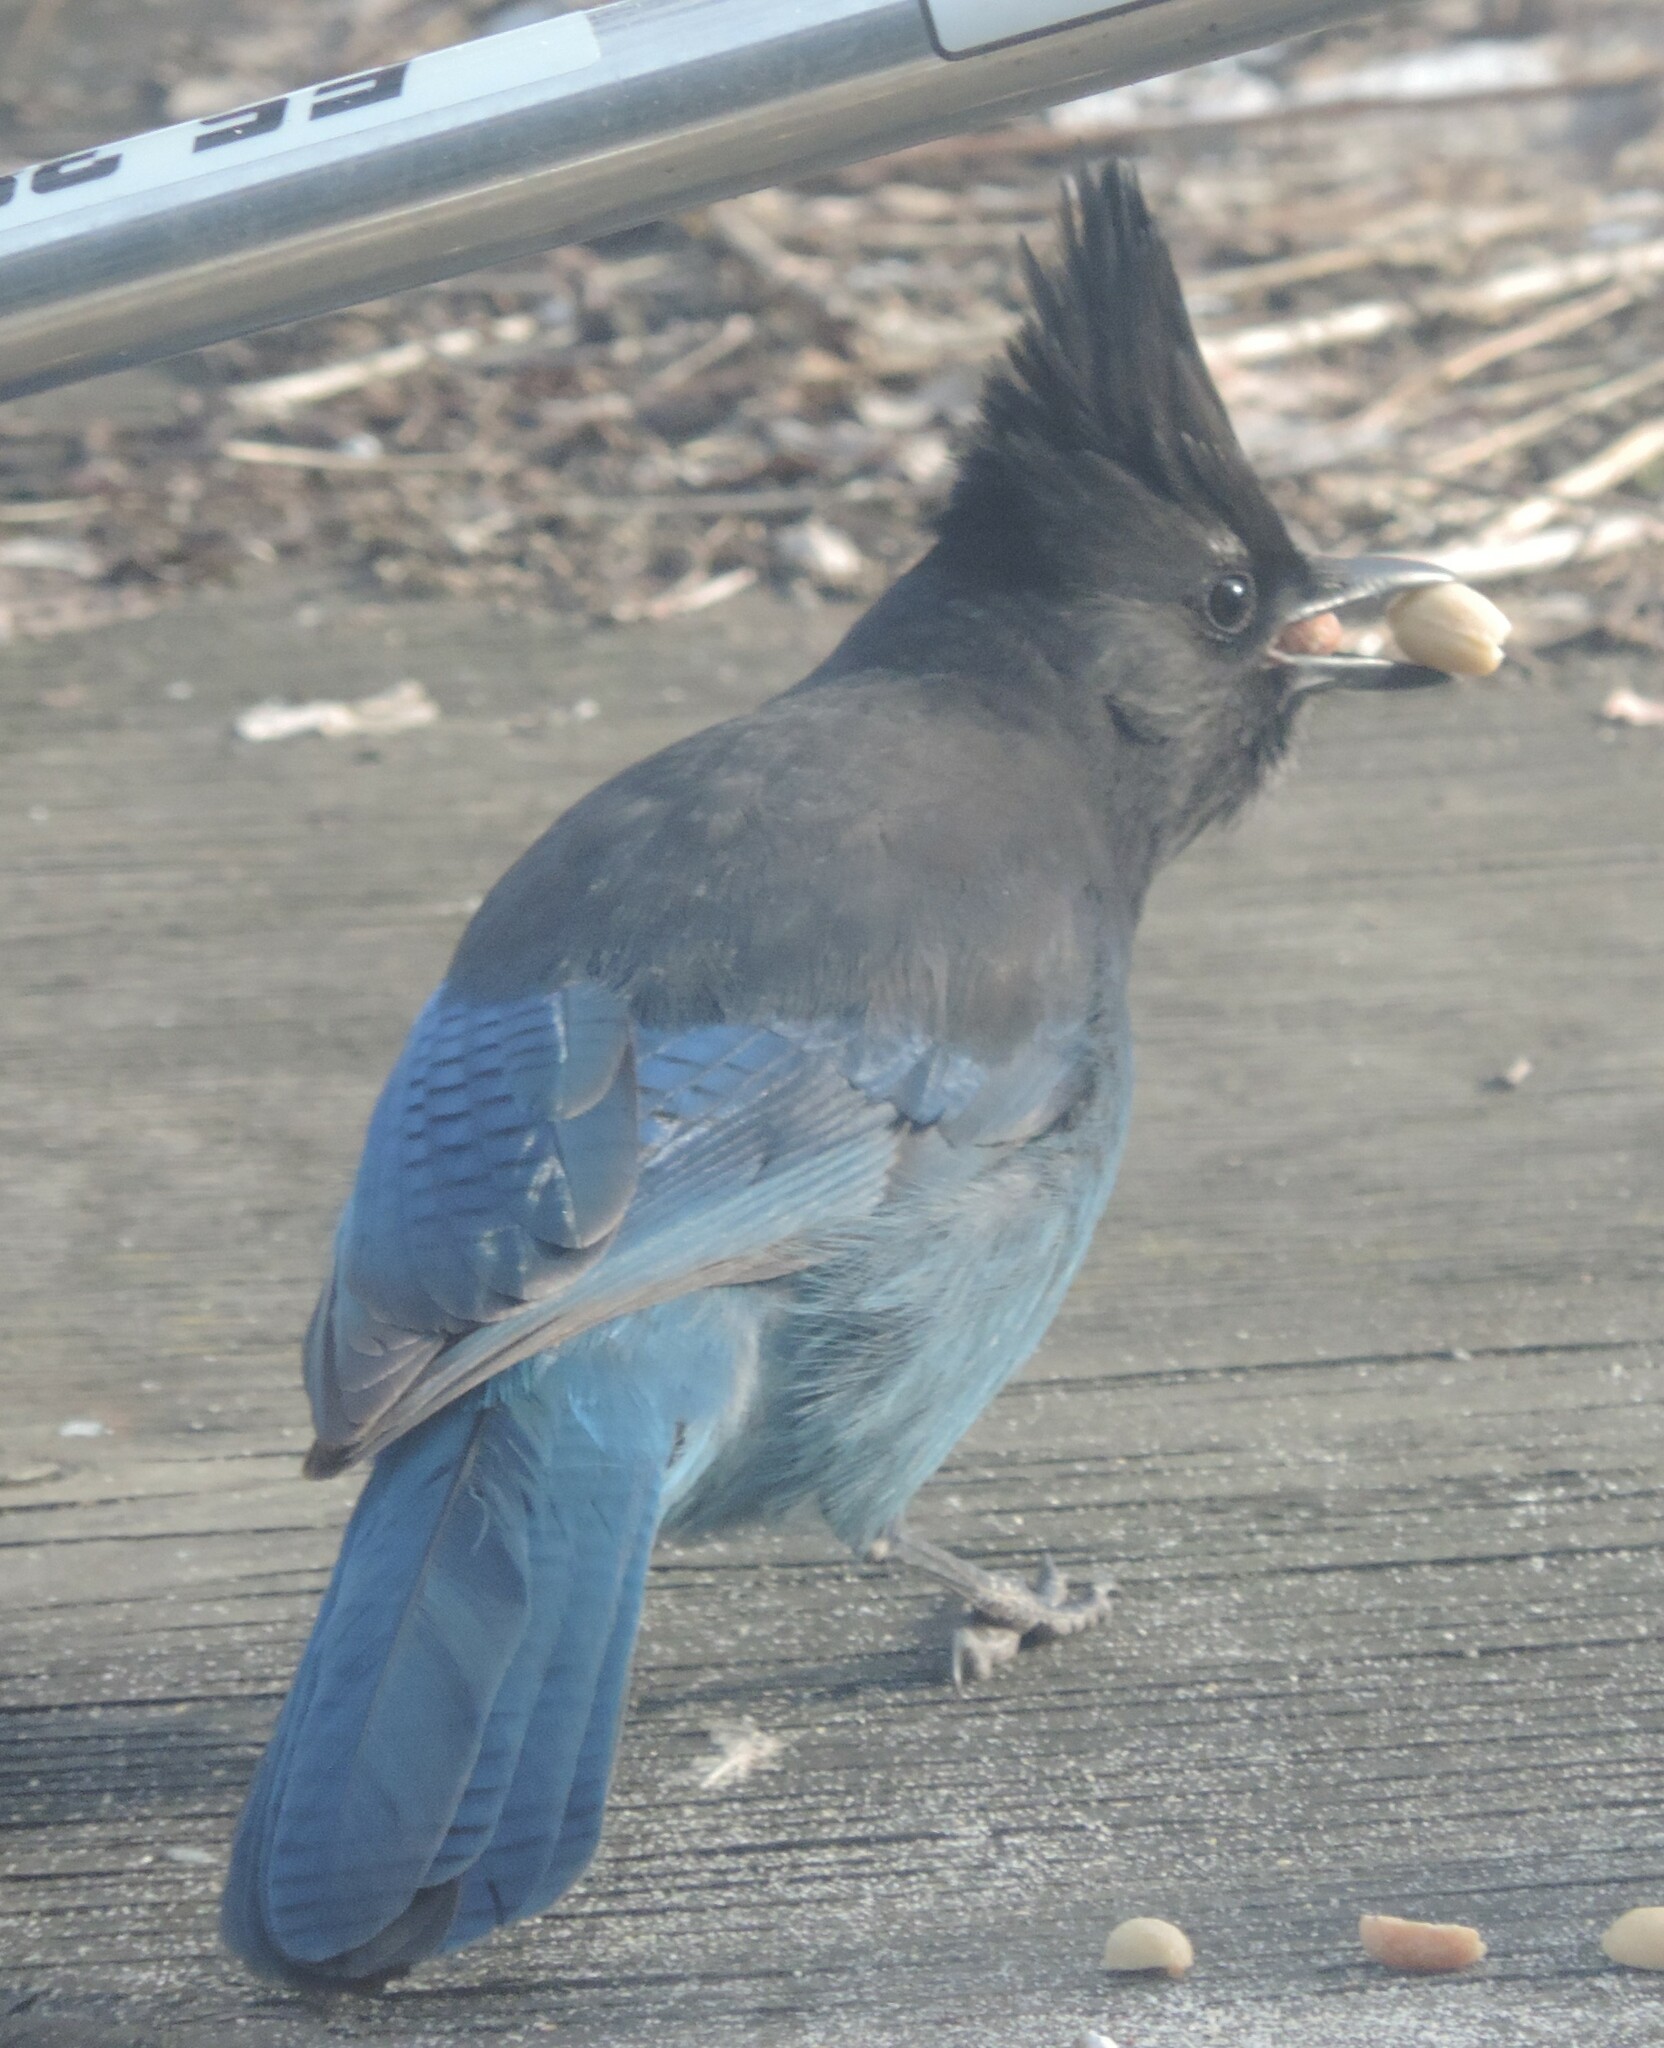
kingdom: Animalia
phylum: Chordata
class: Aves
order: Passeriformes
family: Corvidae
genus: Cyanocitta
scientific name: Cyanocitta stelleri
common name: Steller's jay
